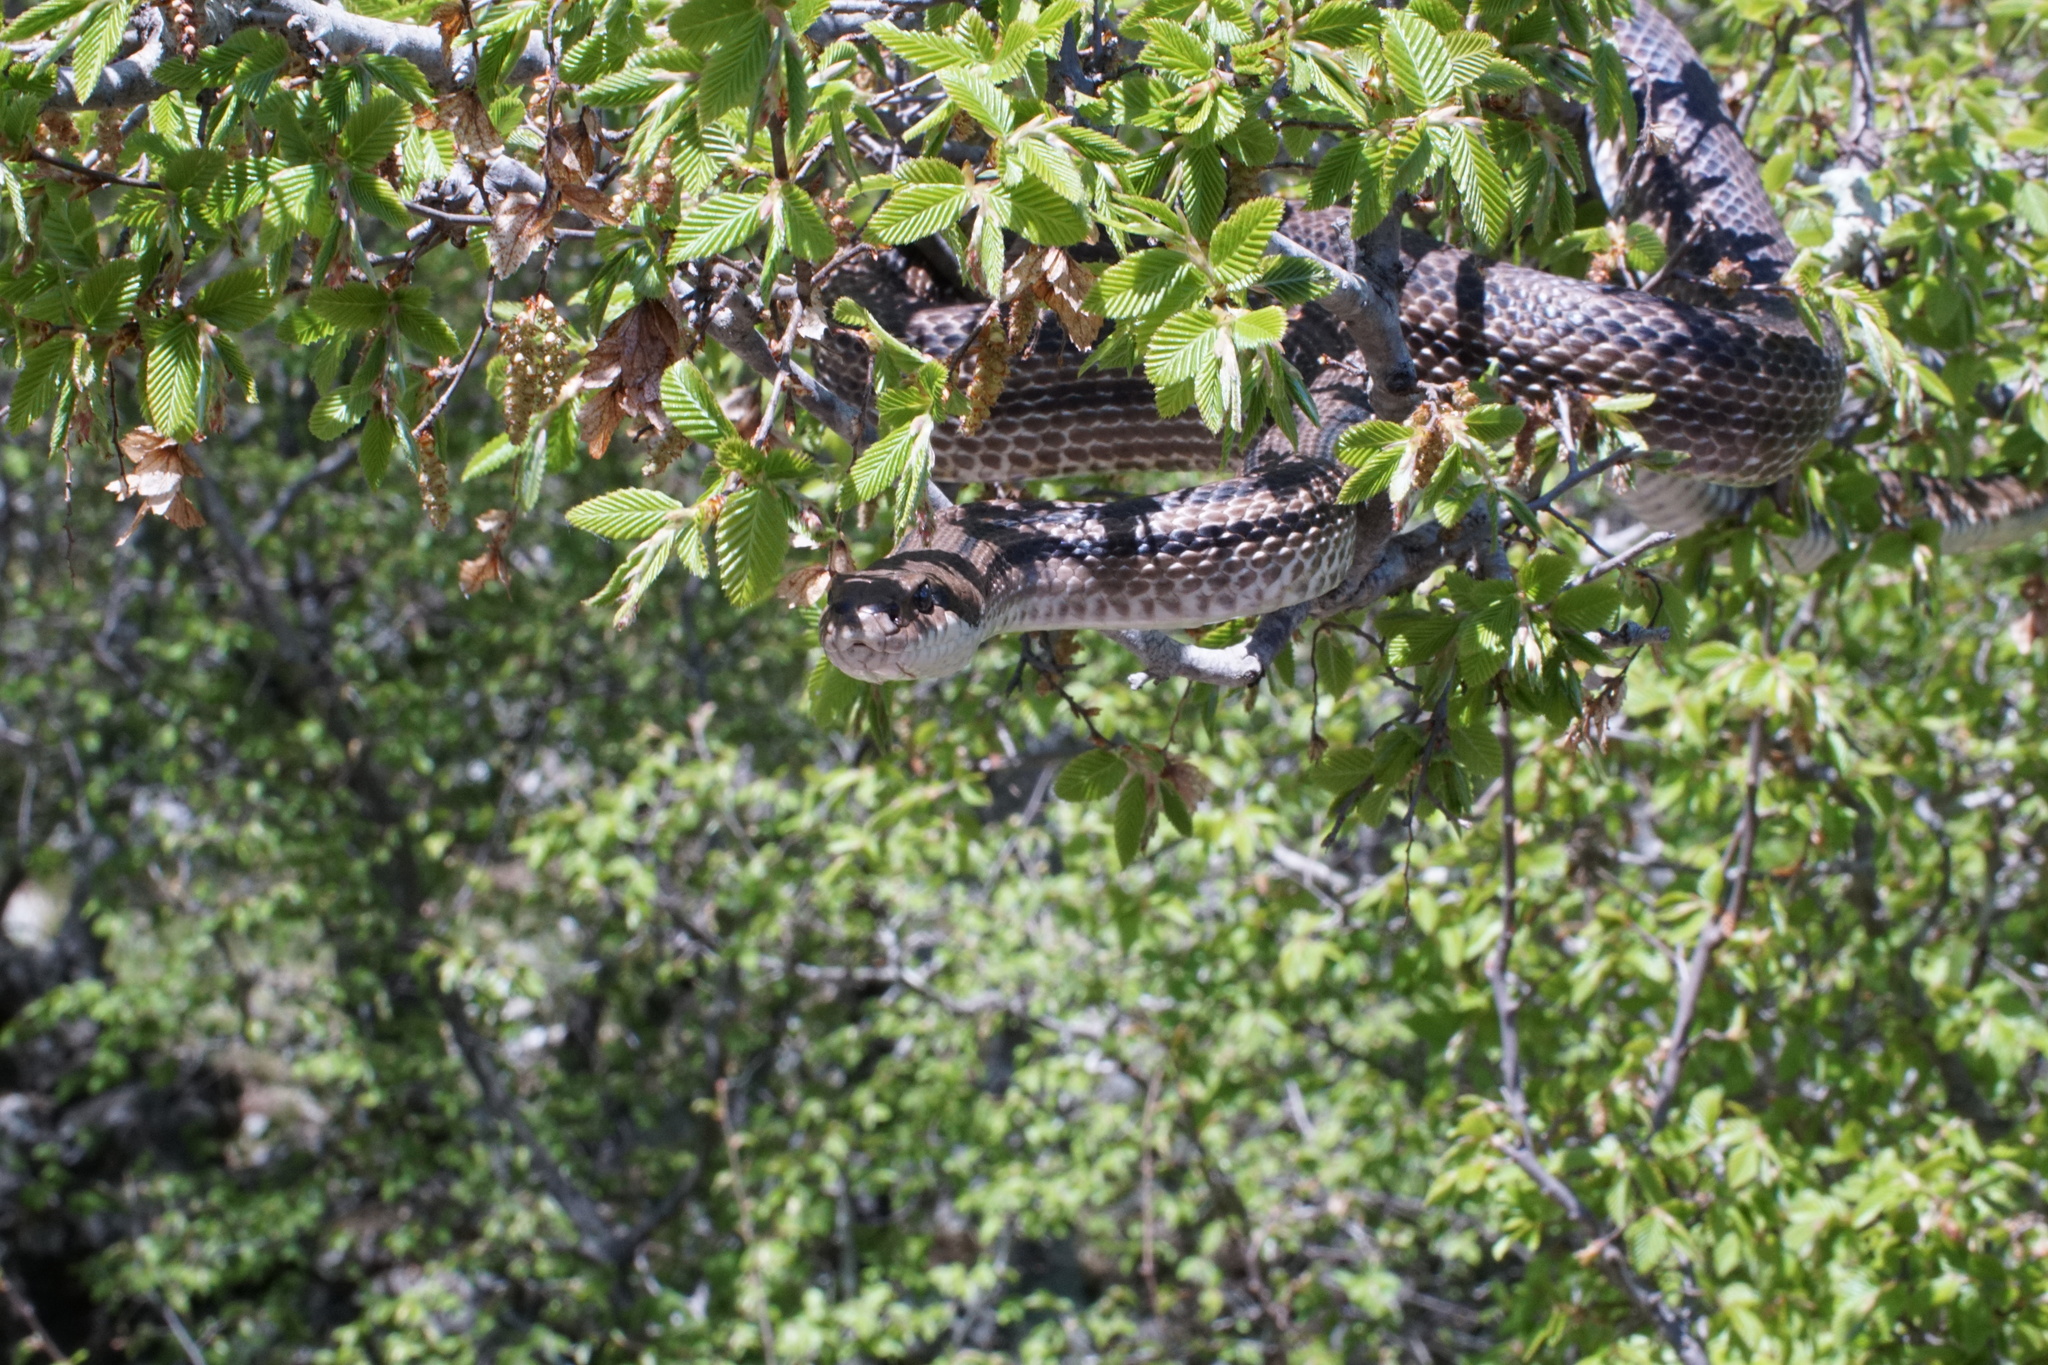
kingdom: Animalia
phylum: Chordata
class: Squamata
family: Colubridae
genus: Elaphe
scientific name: Elaphe quatuorlineata
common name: Four-lined snake
